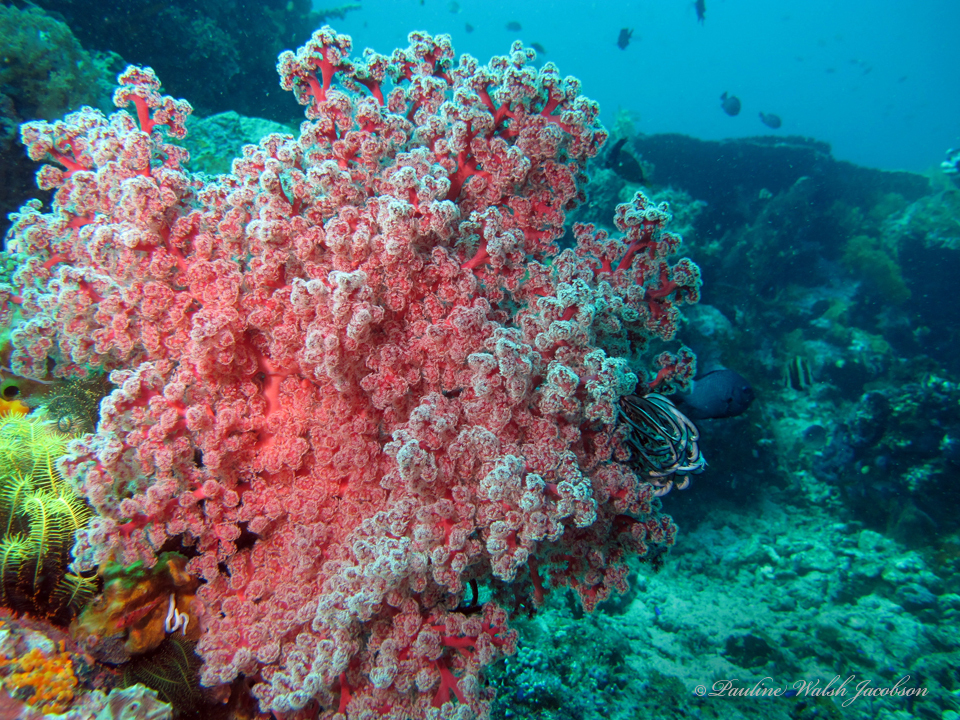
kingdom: Animalia
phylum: Cnidaria
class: Anthozoa
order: Malacalcyonacea
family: Siphonogorgiidae
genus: Siphonogorgia
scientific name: Siphonogorgia godeffroyi
